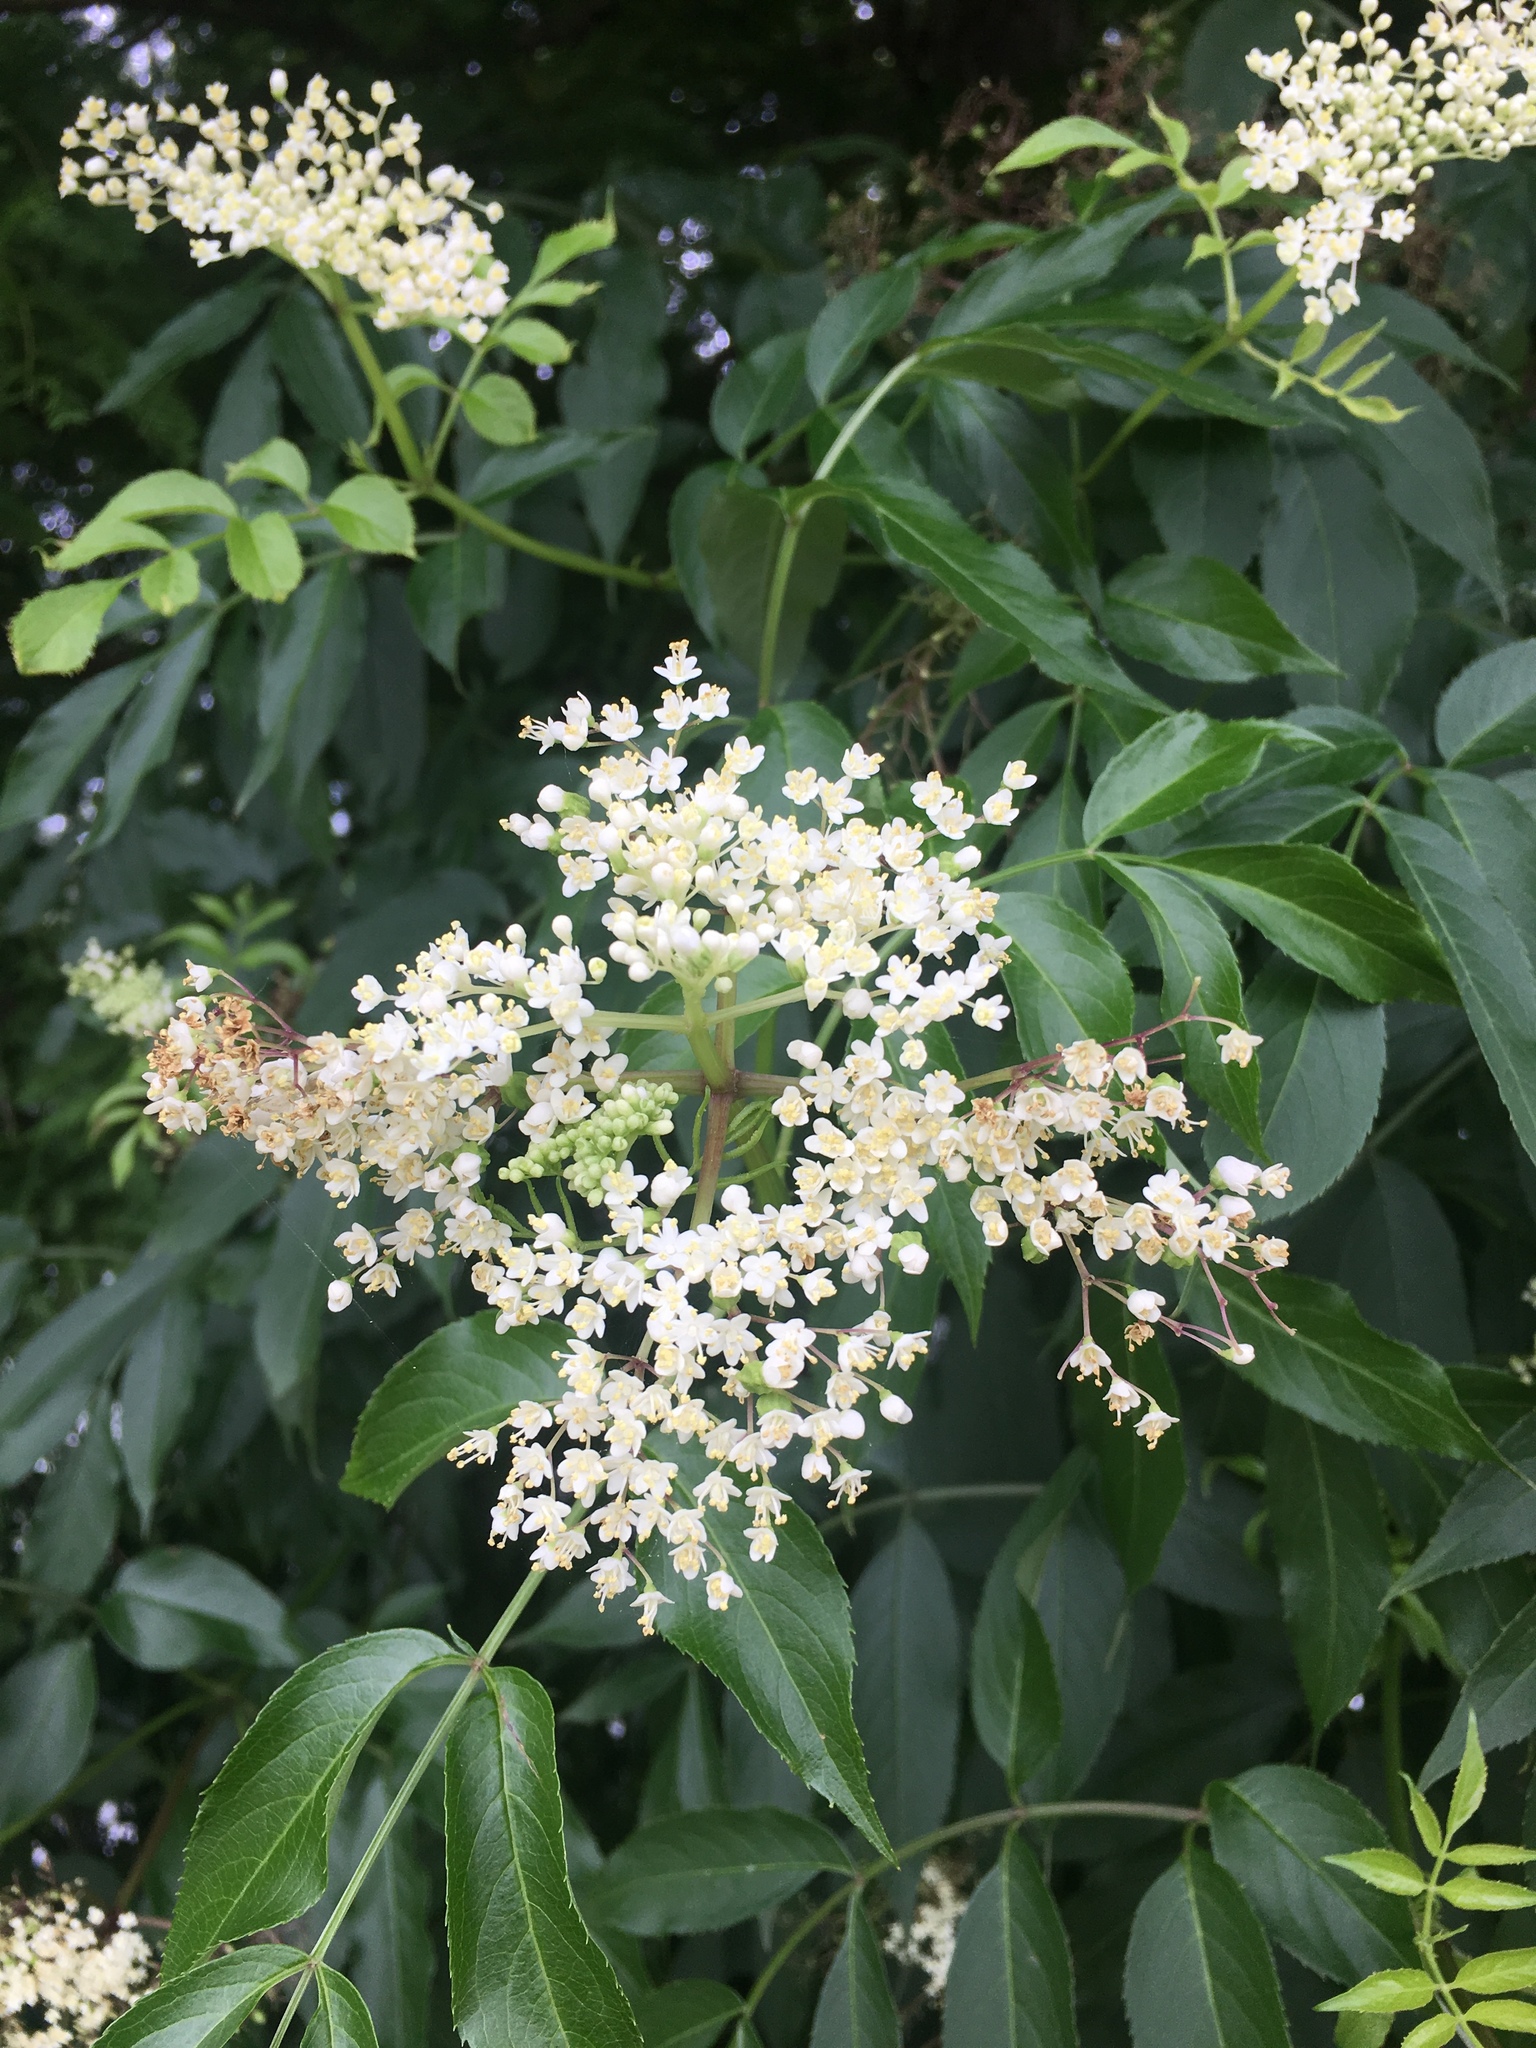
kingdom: Plantae
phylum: Tracheophyta
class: Magnoliopsida
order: Dipsacales
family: Viburnaceae
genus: Sambucus
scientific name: Sambucus canadensis
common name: American elder
